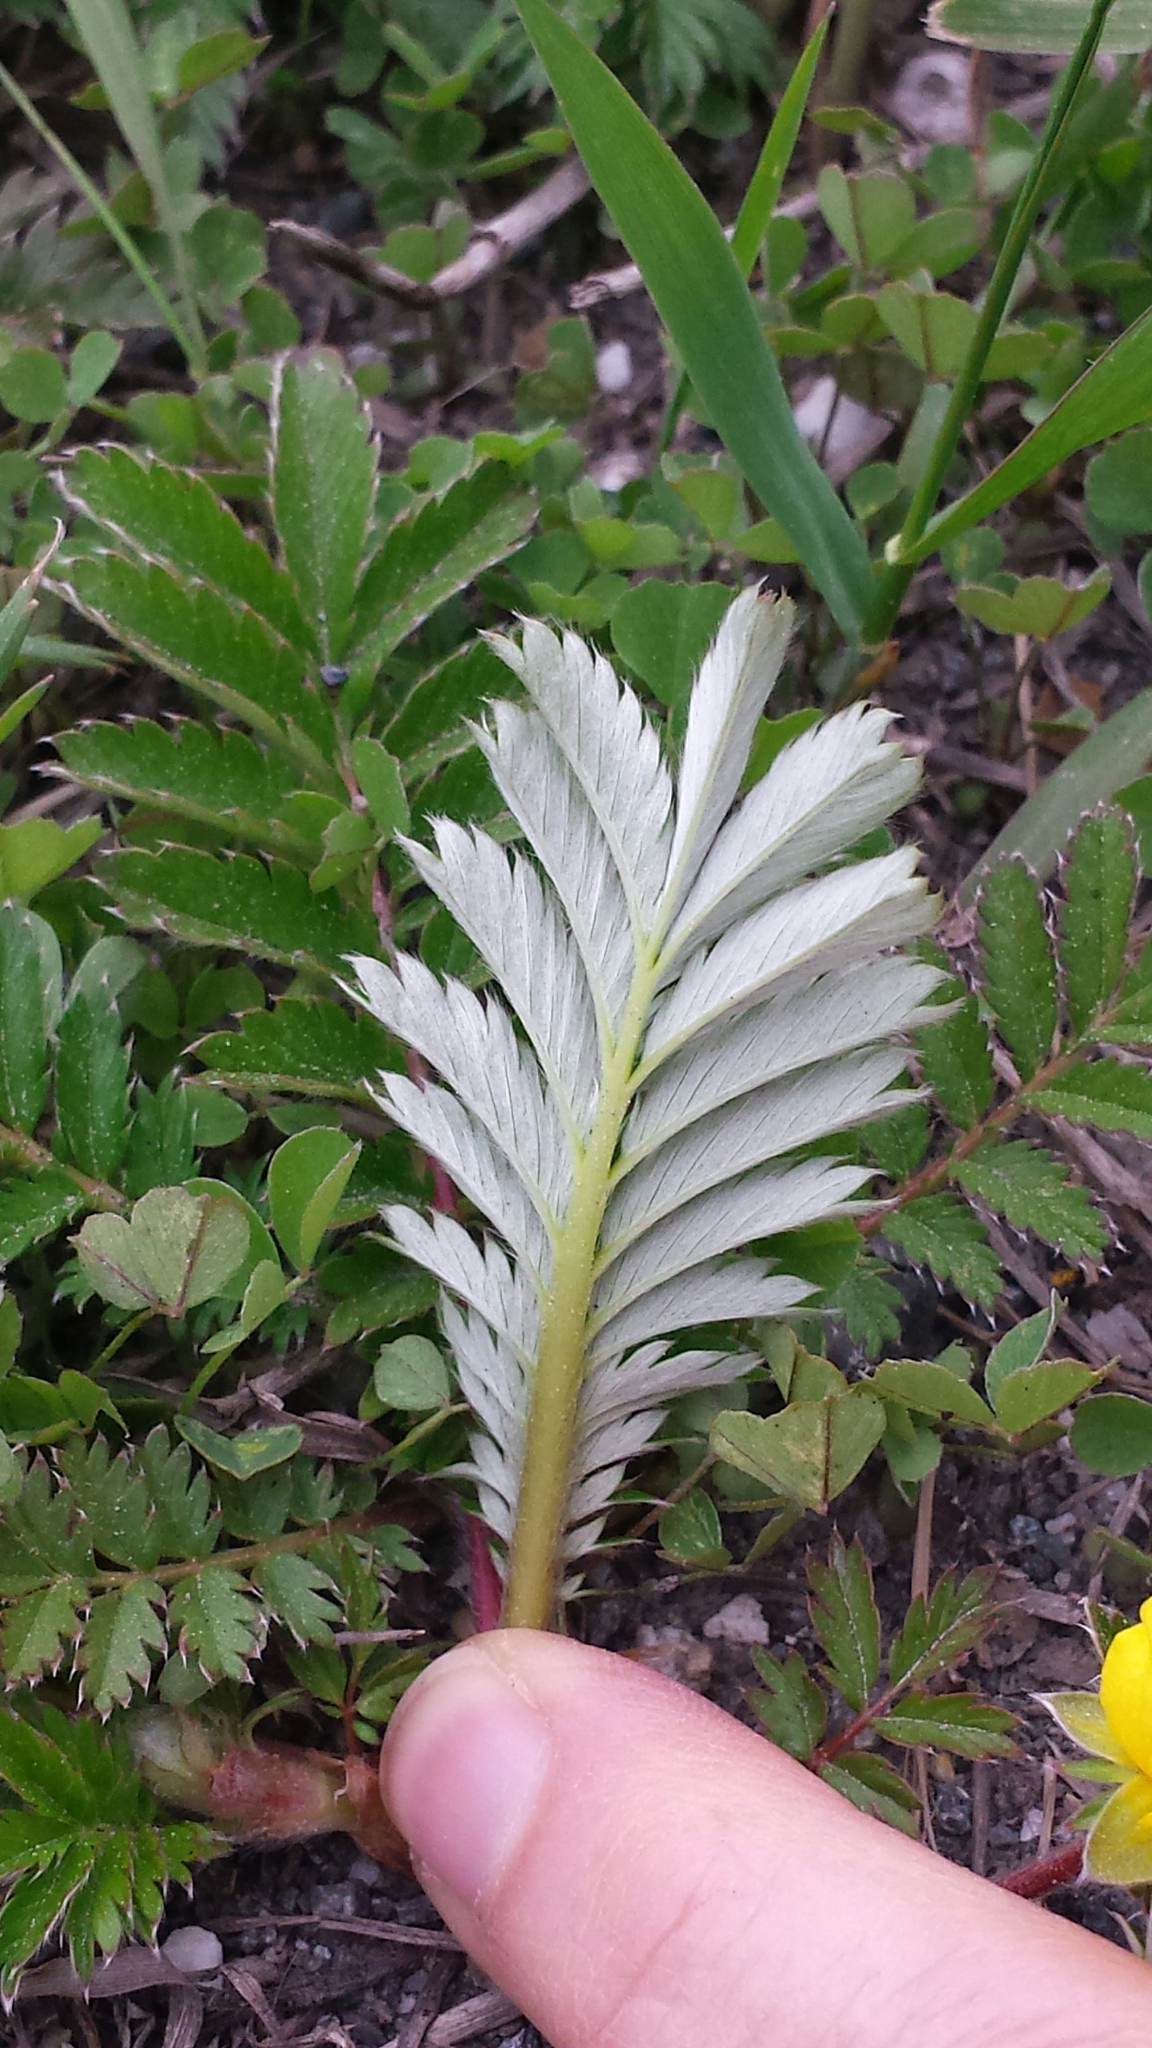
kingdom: Plantae
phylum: Tracheophyta
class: Magnoliopsida
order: Rosales
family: Rosaceae
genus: Argentina
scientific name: Argentina anserina
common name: Common silverweed
